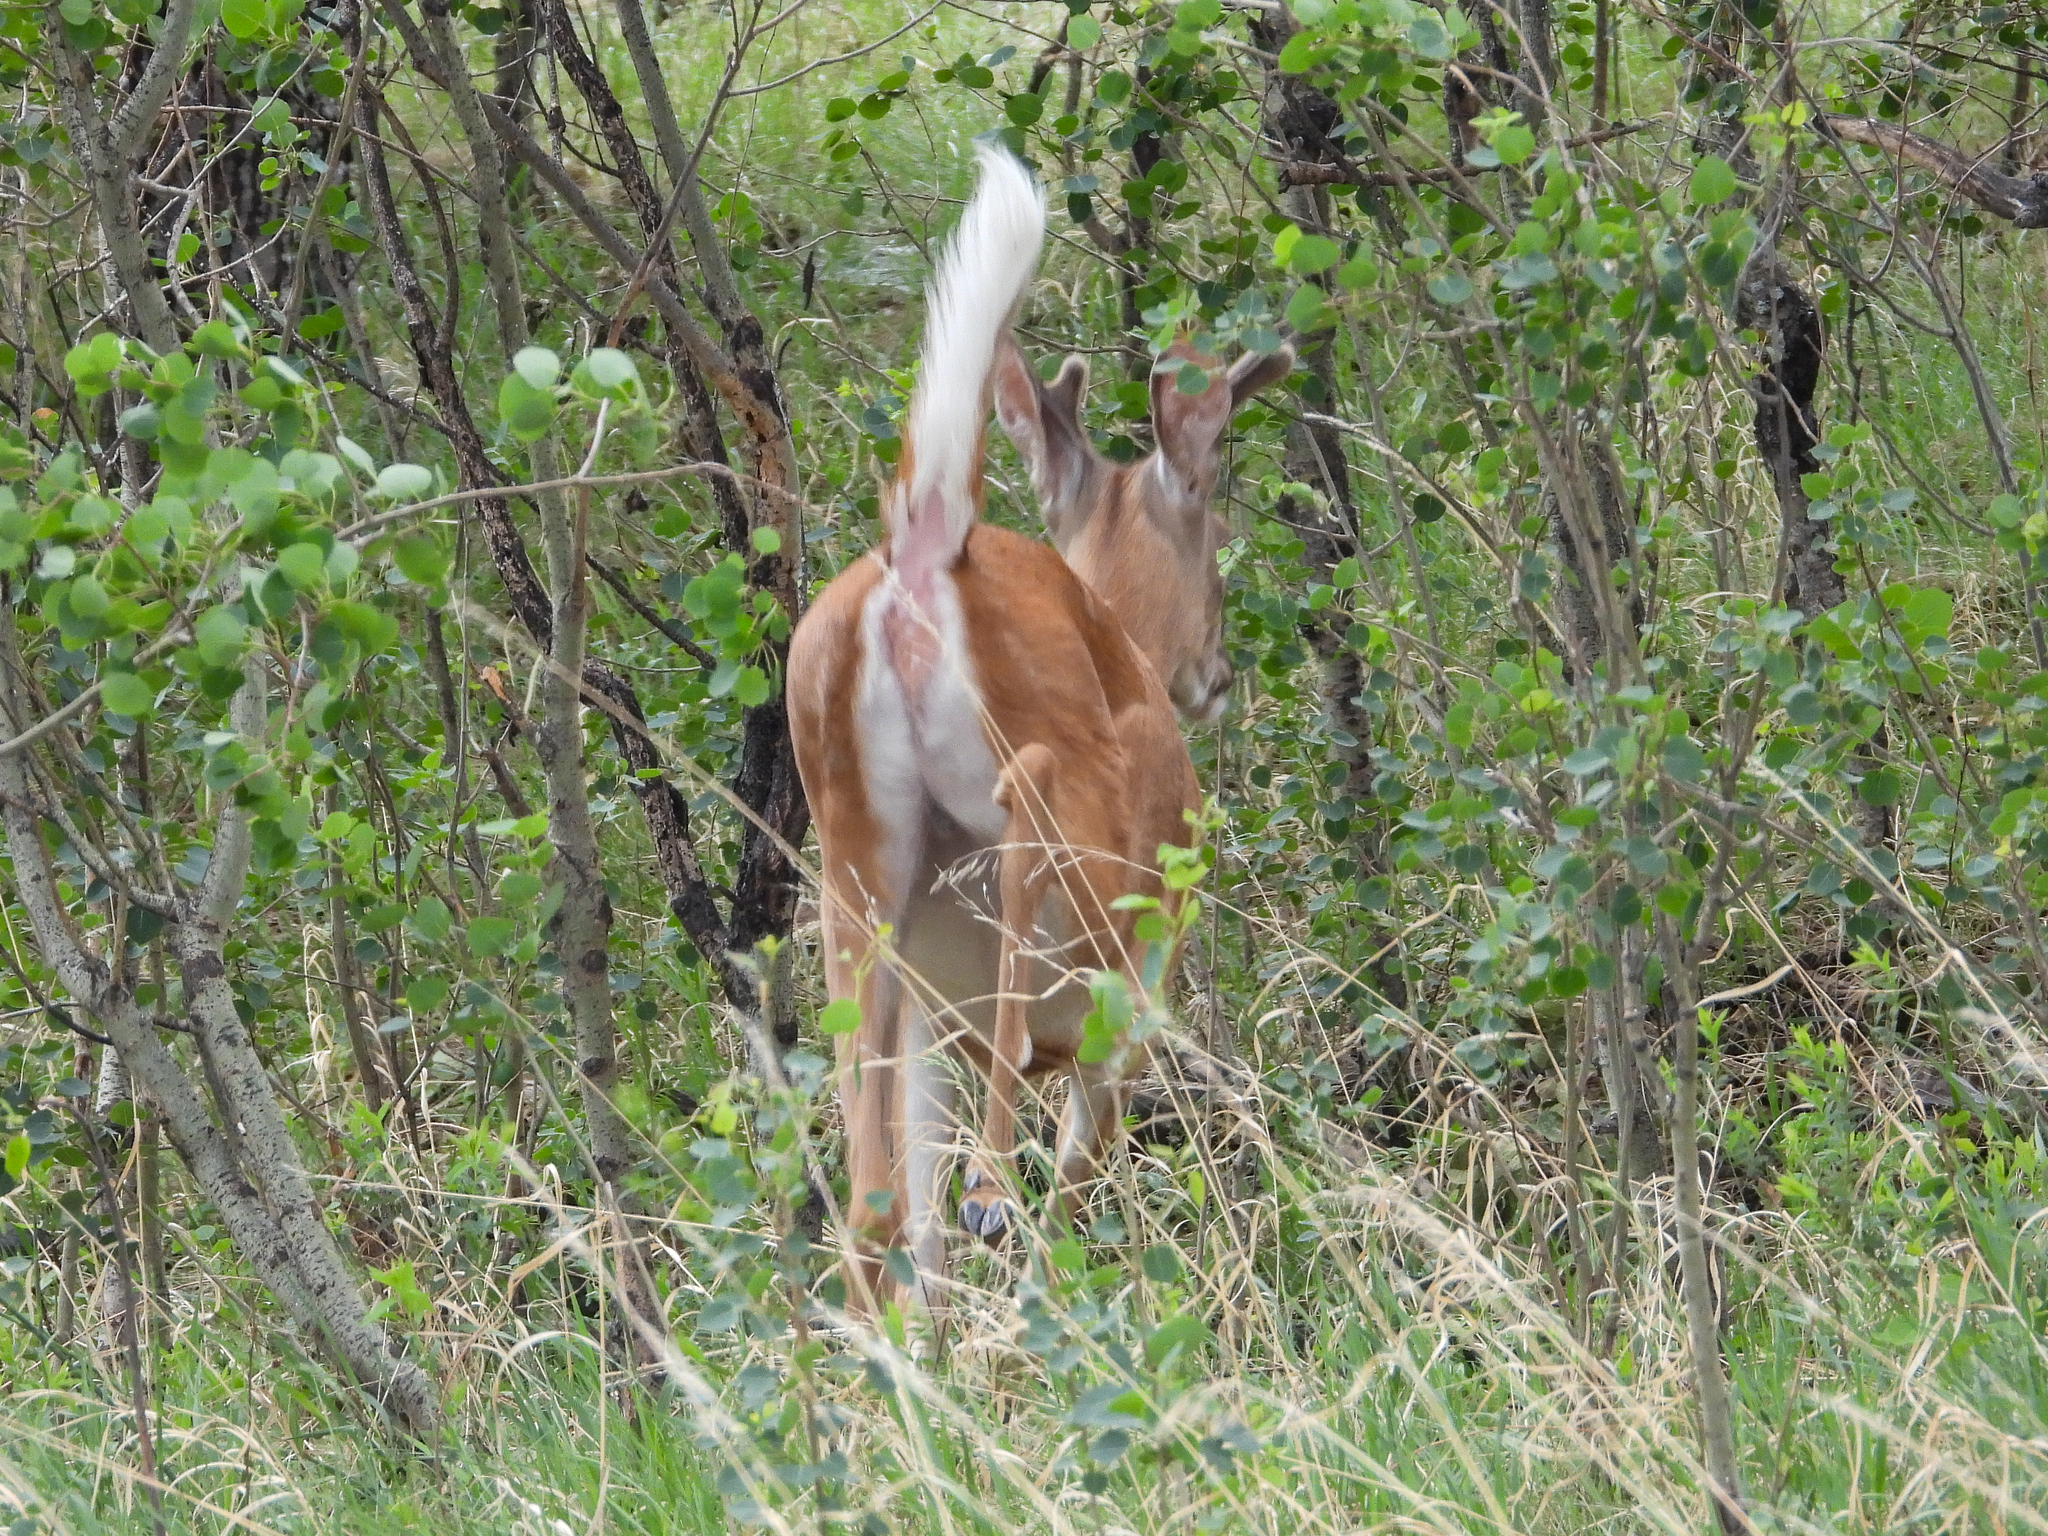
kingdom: Animalia
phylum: Chordata
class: Mammalia
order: Artiodactyla
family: Cervidae
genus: Odocoileus
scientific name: Odocoileus virginianus
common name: White-tailed deer
